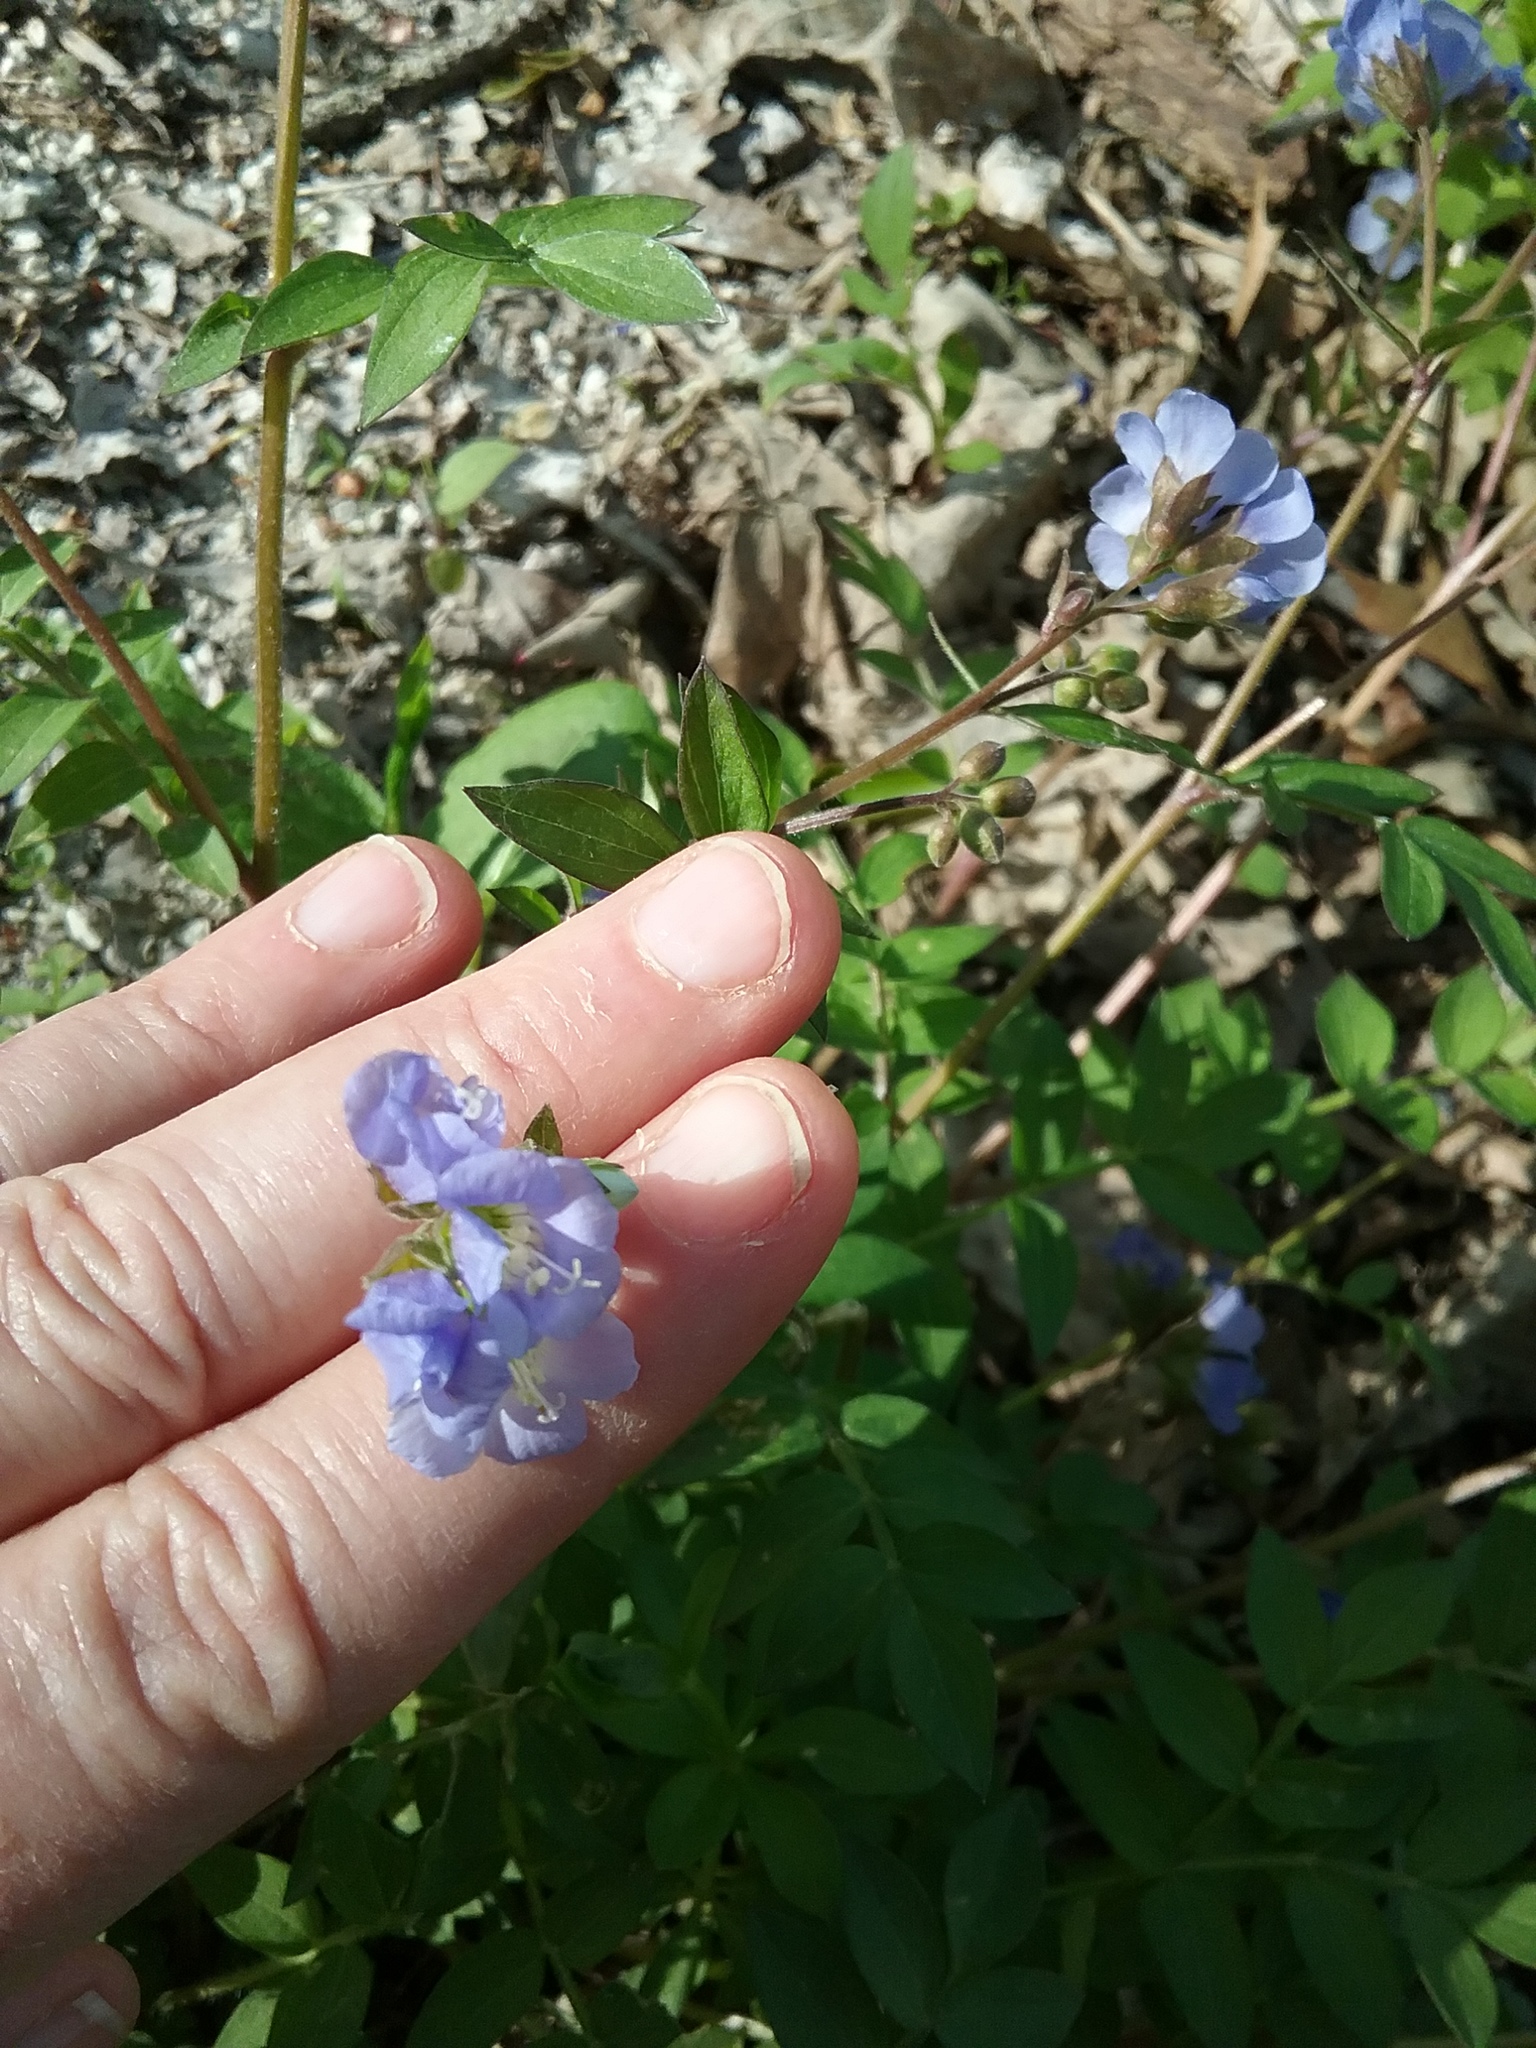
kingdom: Plantae
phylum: Tracheophyta
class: Magnoliopsida
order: Ericales
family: Polemoniaceae
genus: Polemonium
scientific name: Polemonium reptans
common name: Creeping jacob's-ladder
